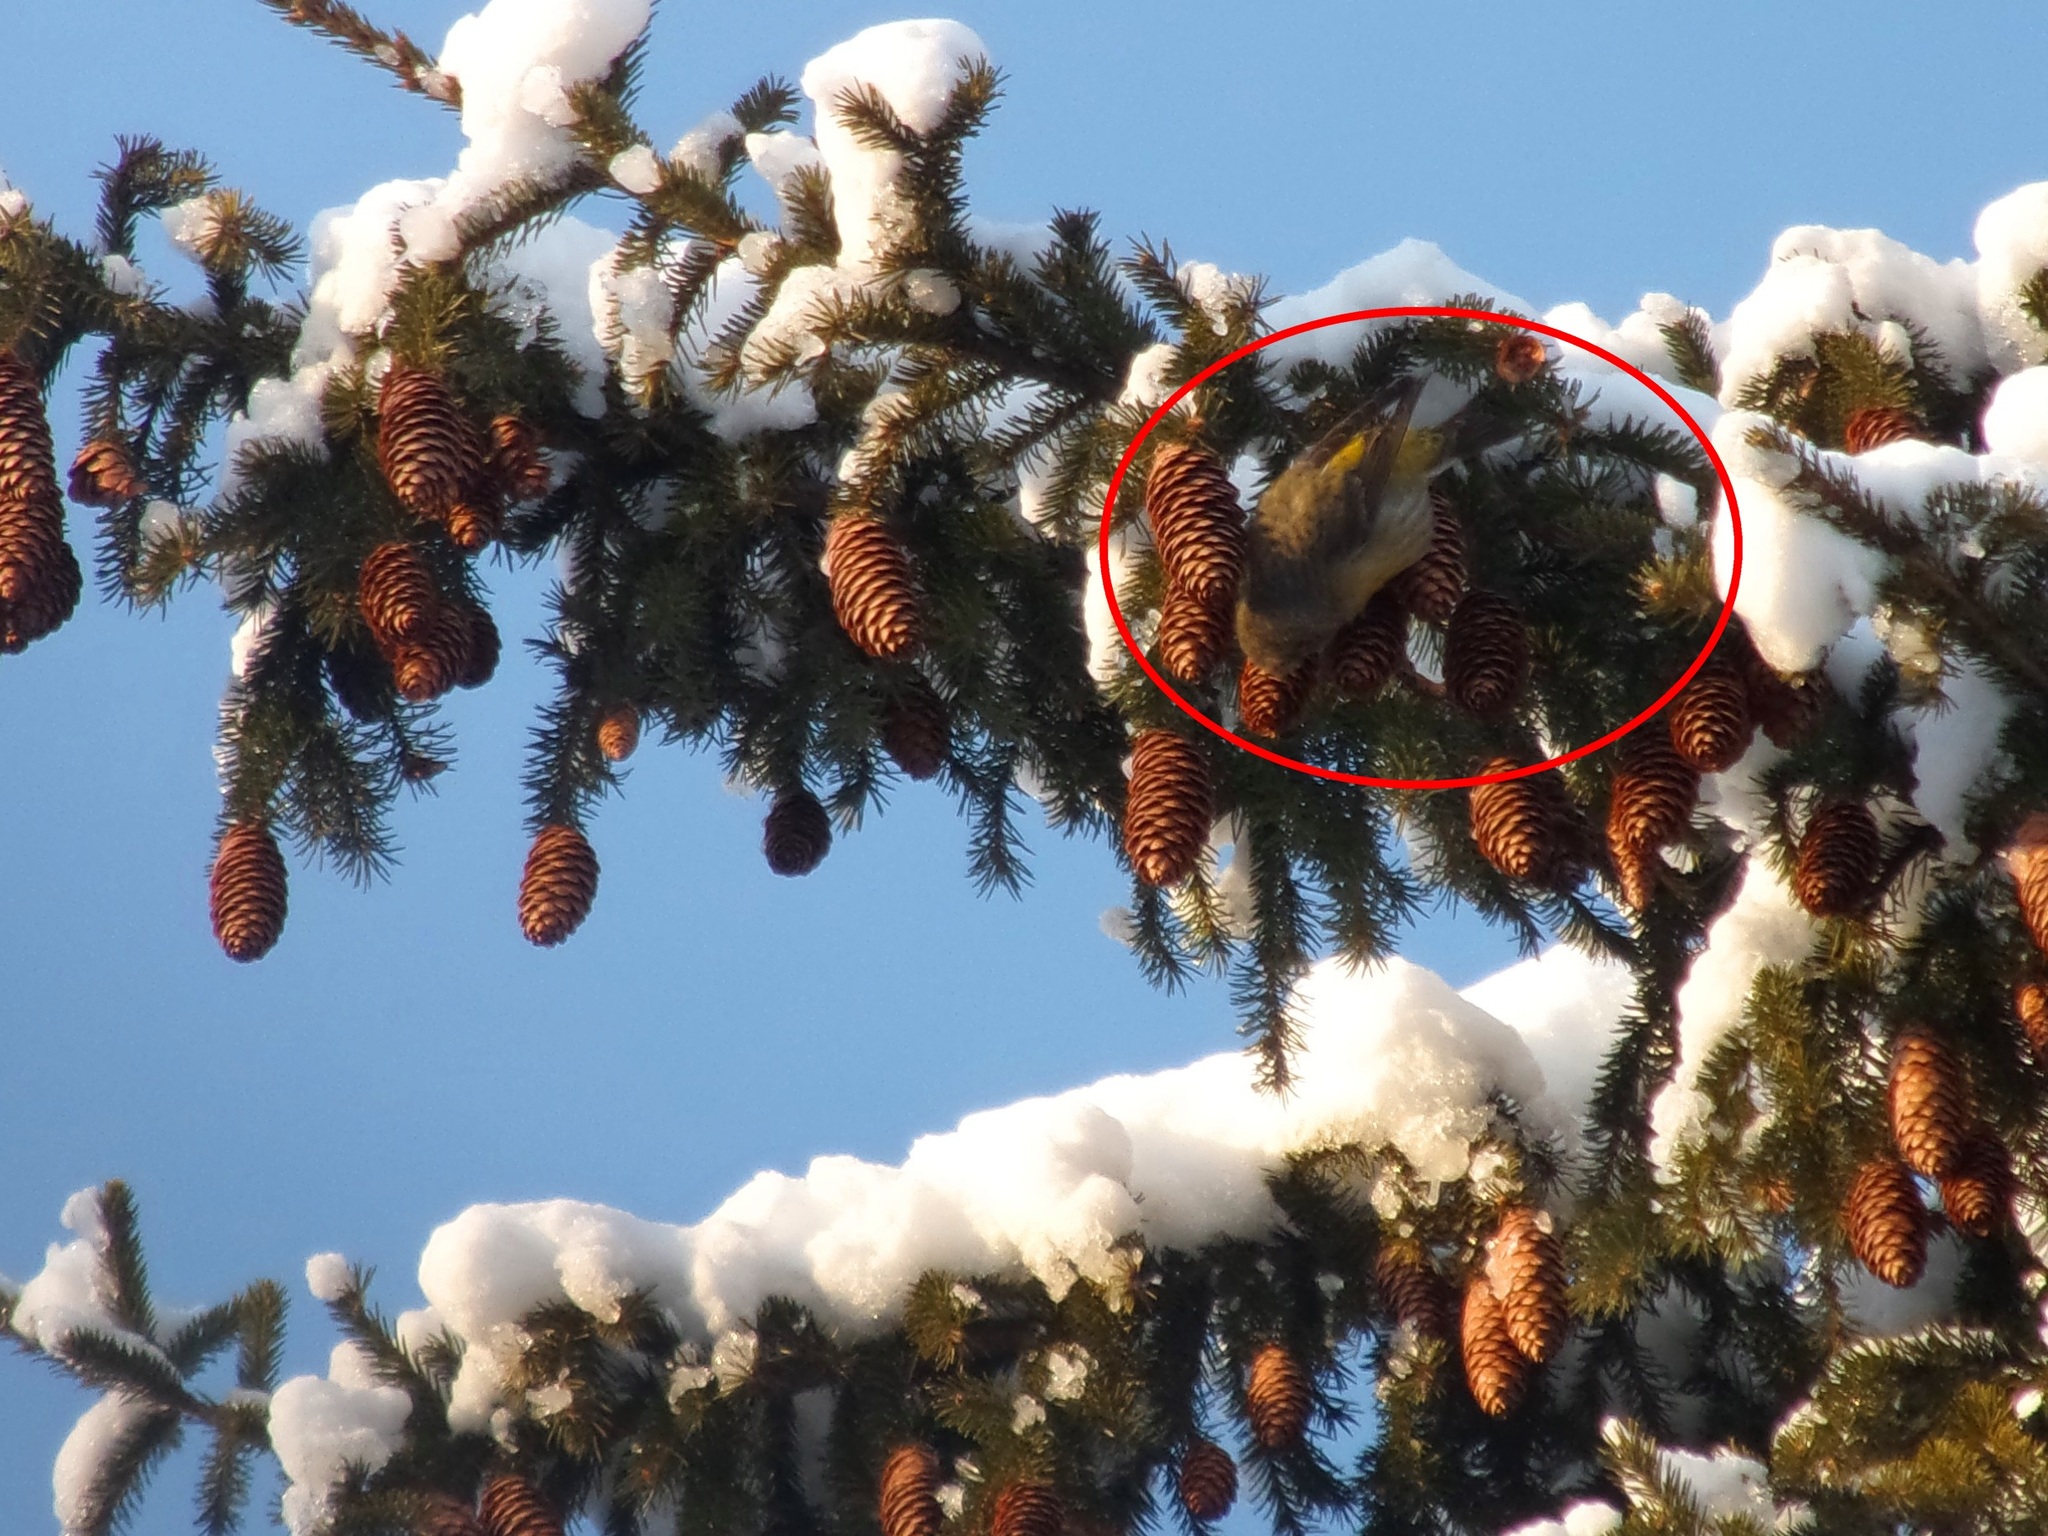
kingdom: Animalia
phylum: Chordata
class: Aves
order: Passeriformes
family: Fringillidae
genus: Loxia
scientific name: Loxia curvirostra
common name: Red crossbill
